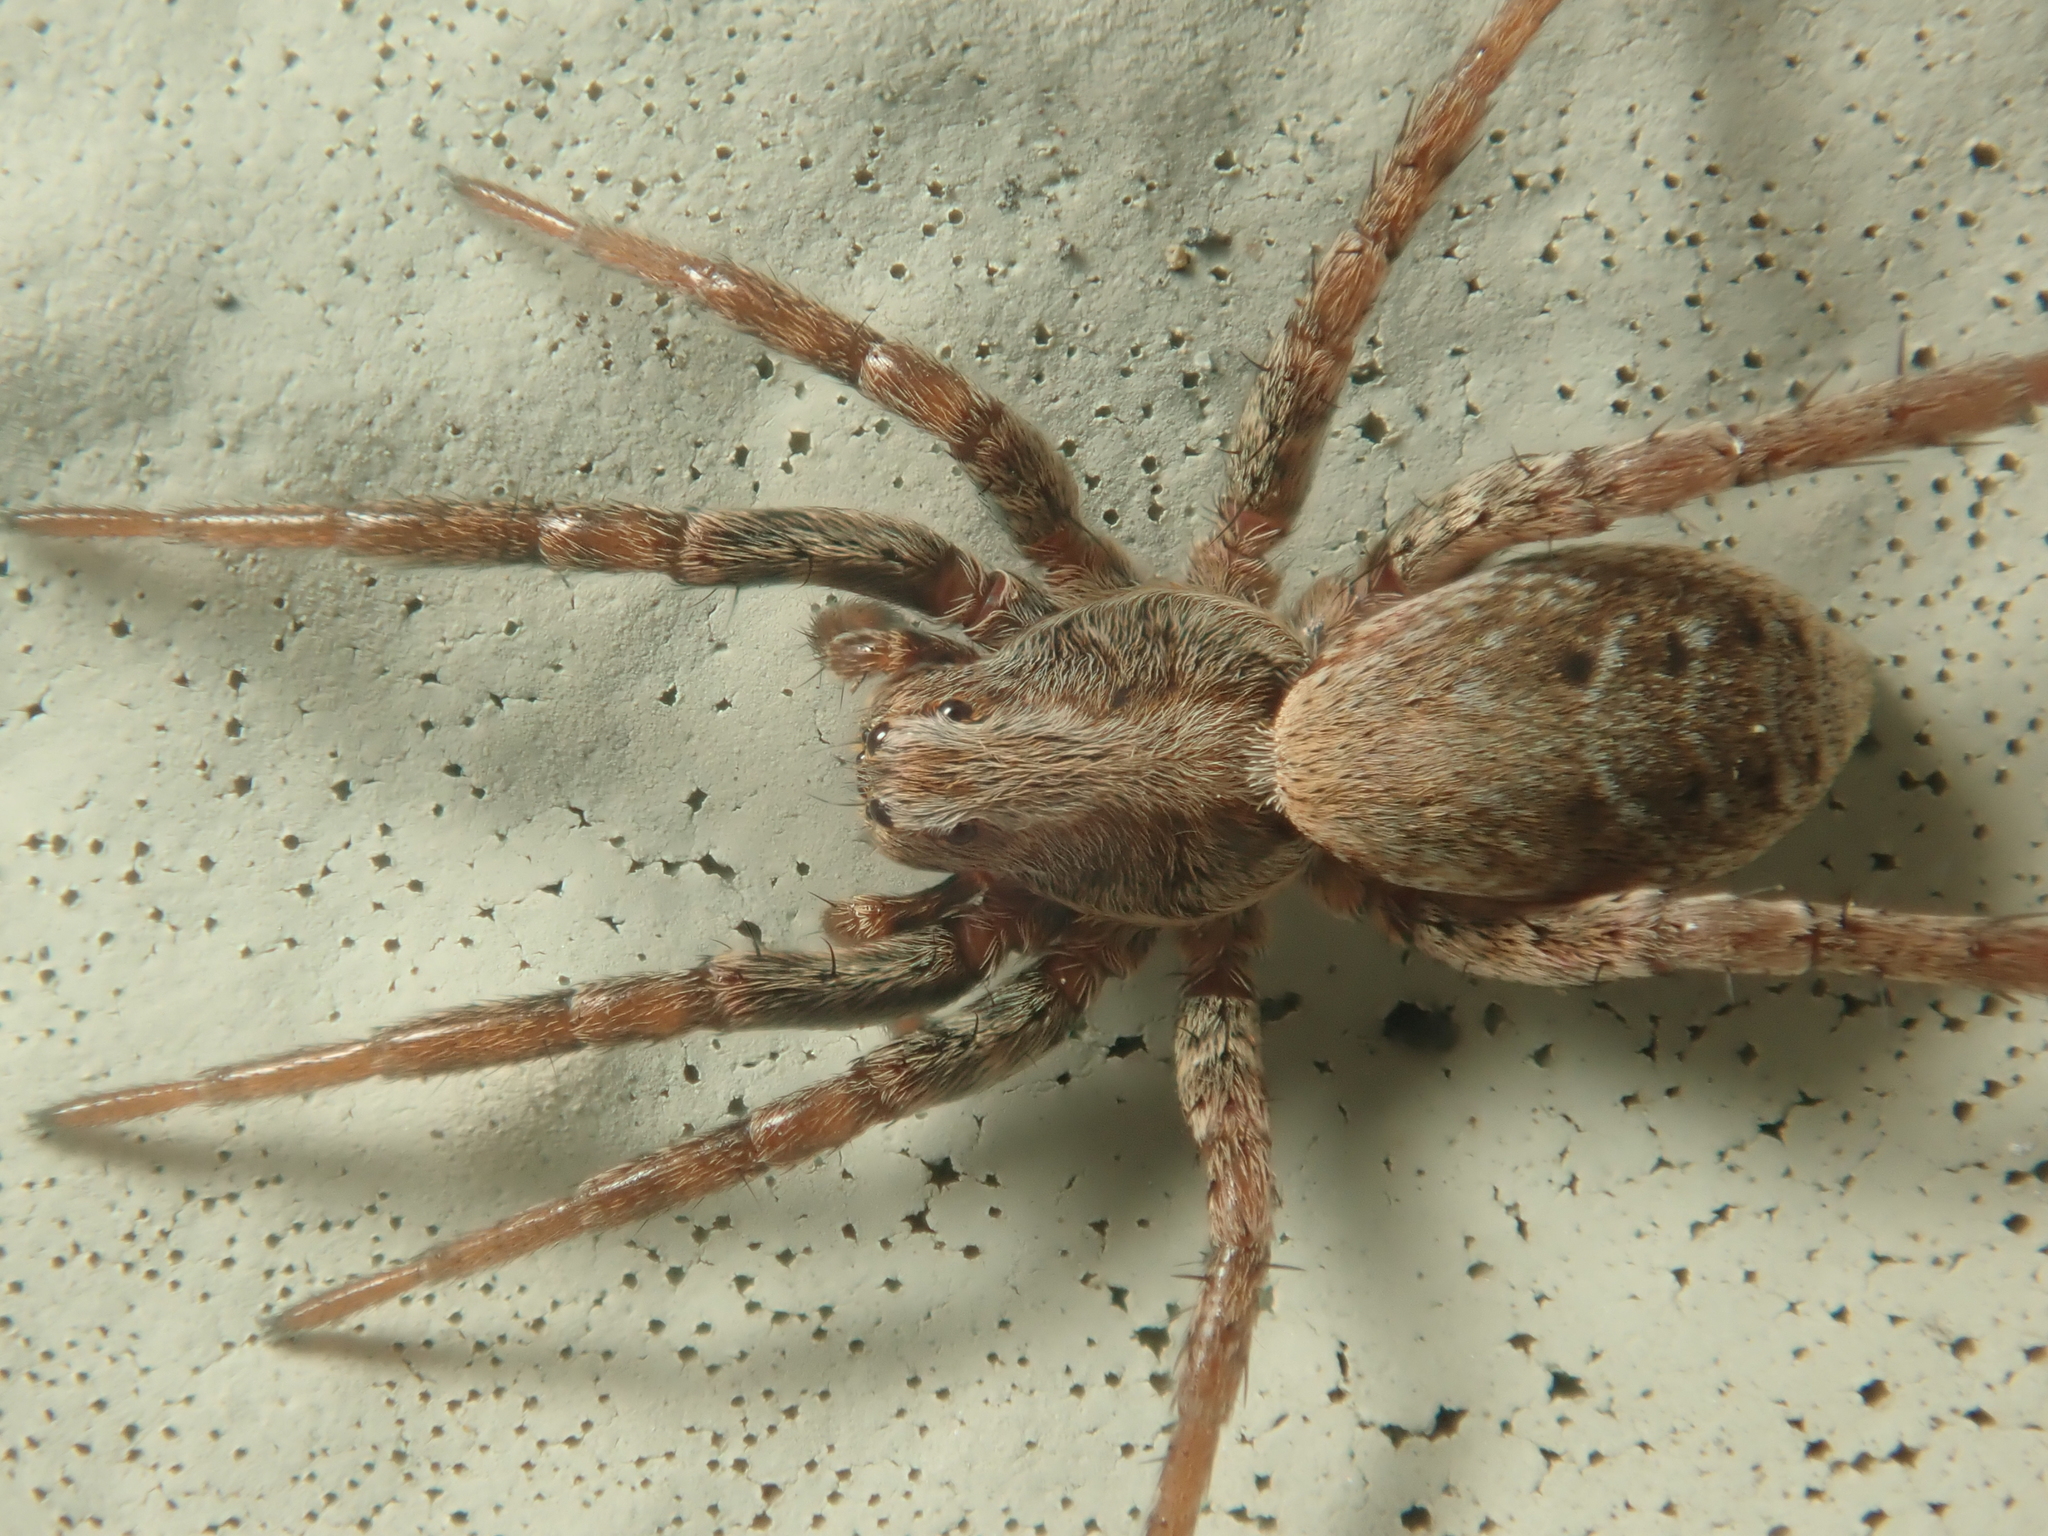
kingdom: Animalia
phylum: Arthropoda
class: Arachnida
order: Araneae
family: Lycosidae
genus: Xerolycosa
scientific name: Xerolycosa miniata
